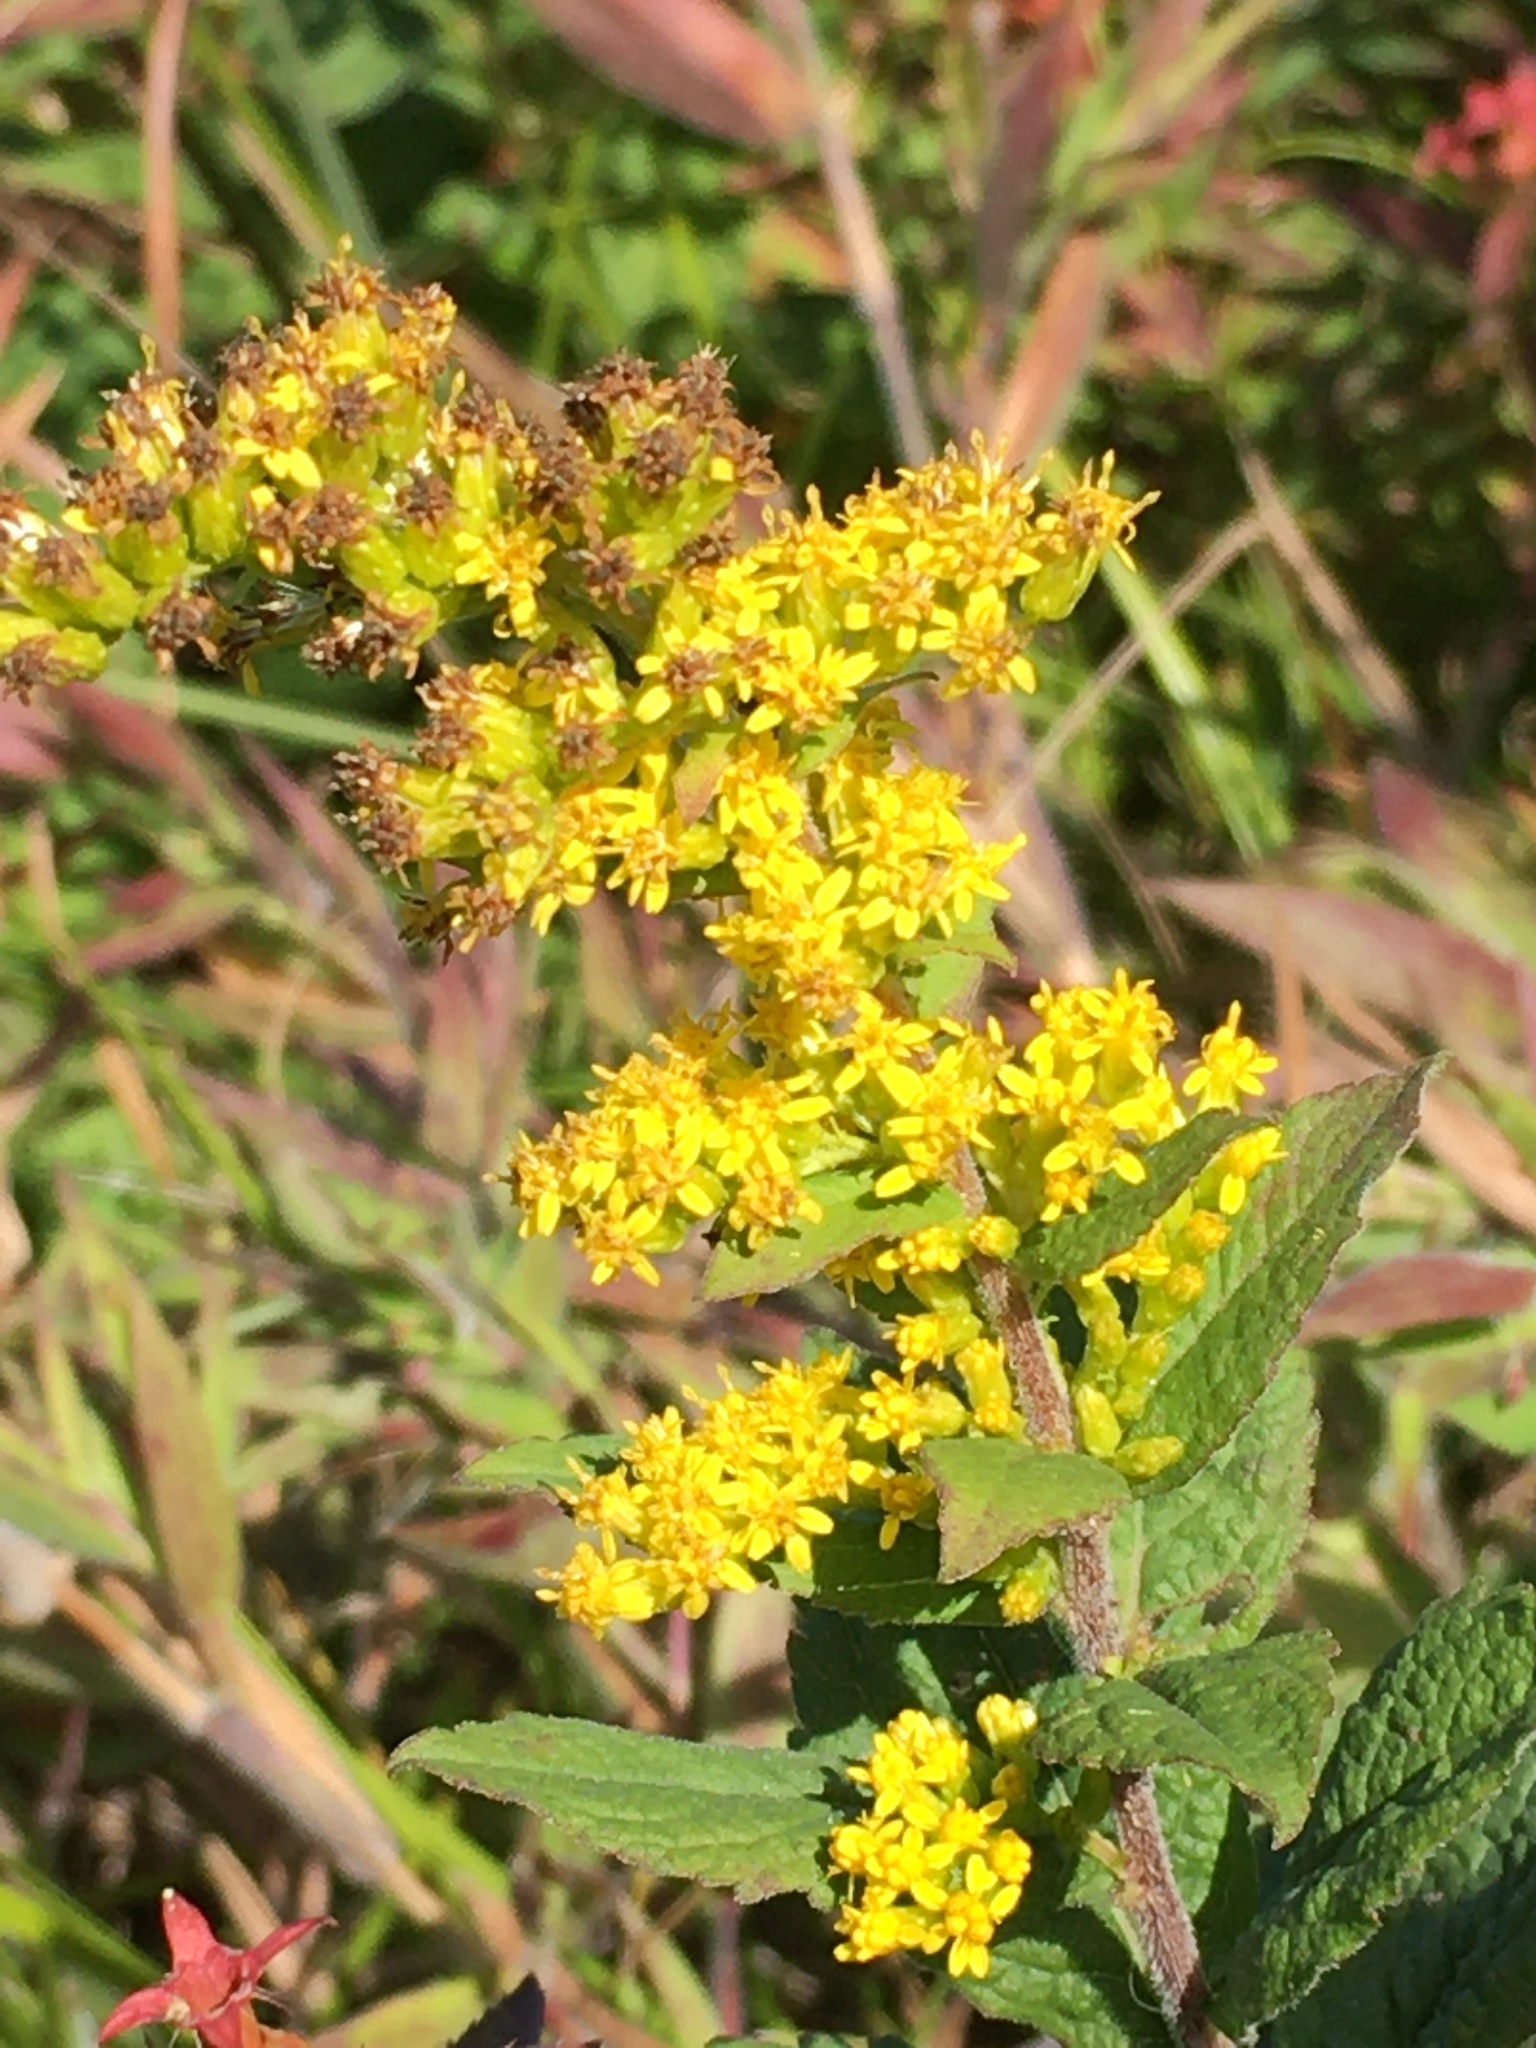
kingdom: Plantae
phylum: Tracheophyta
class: Magnoliopsida
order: Asterales
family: Asteraceae
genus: Solidago
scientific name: Solidago rugosa
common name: Rough-stemmed goldenrod
